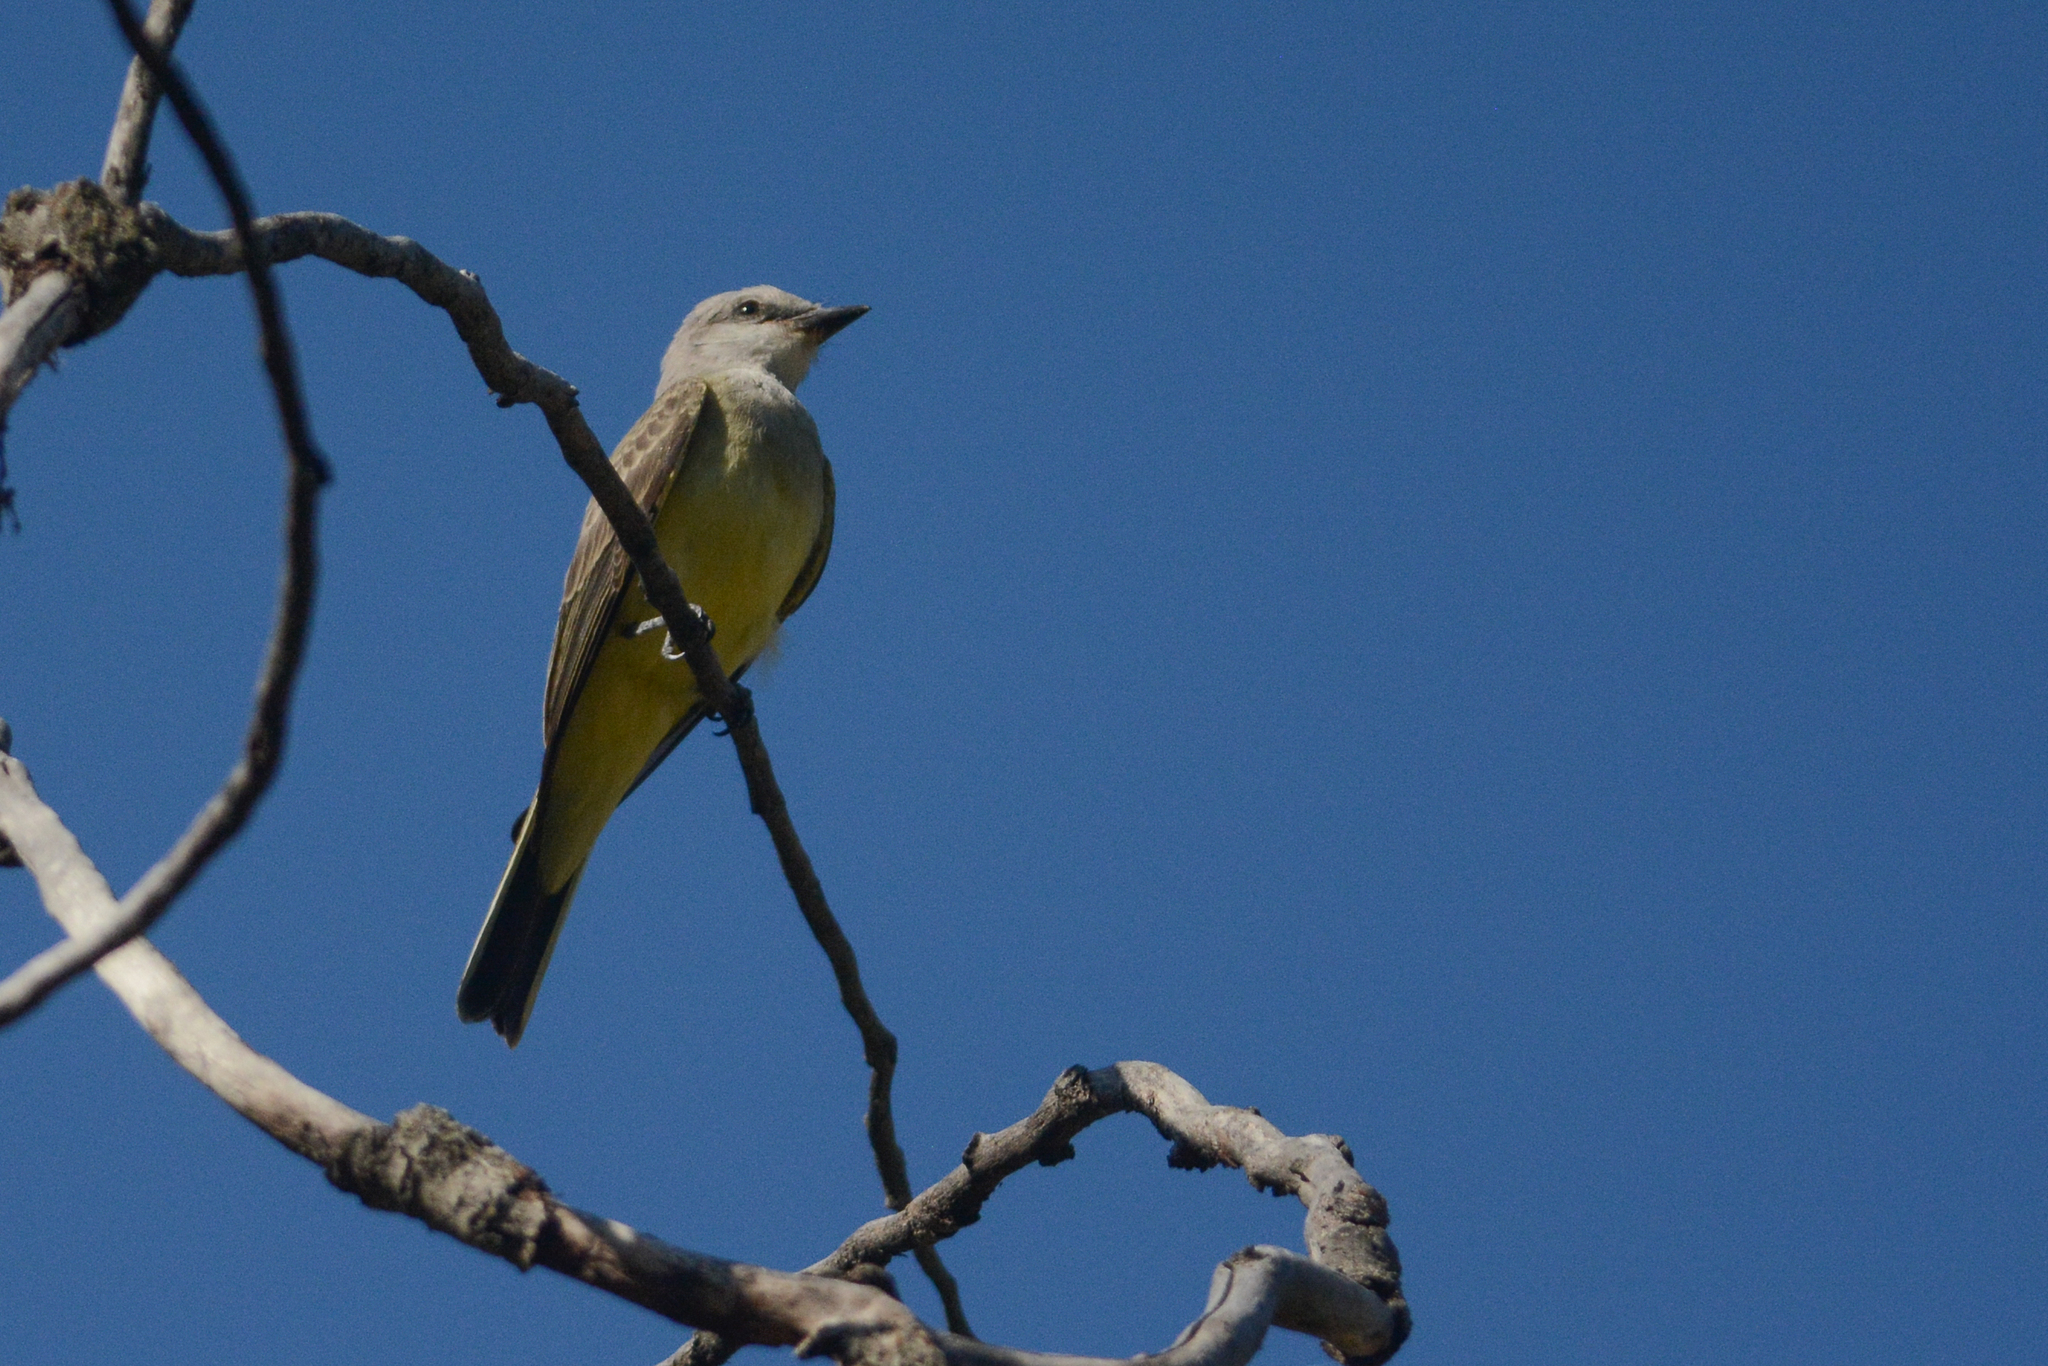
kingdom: Animalia
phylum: Chordata
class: Aves
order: Passeriformes
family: Tyrannidae
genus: Tyrannus
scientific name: Tyrannus verticalis
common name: Western kingbird
